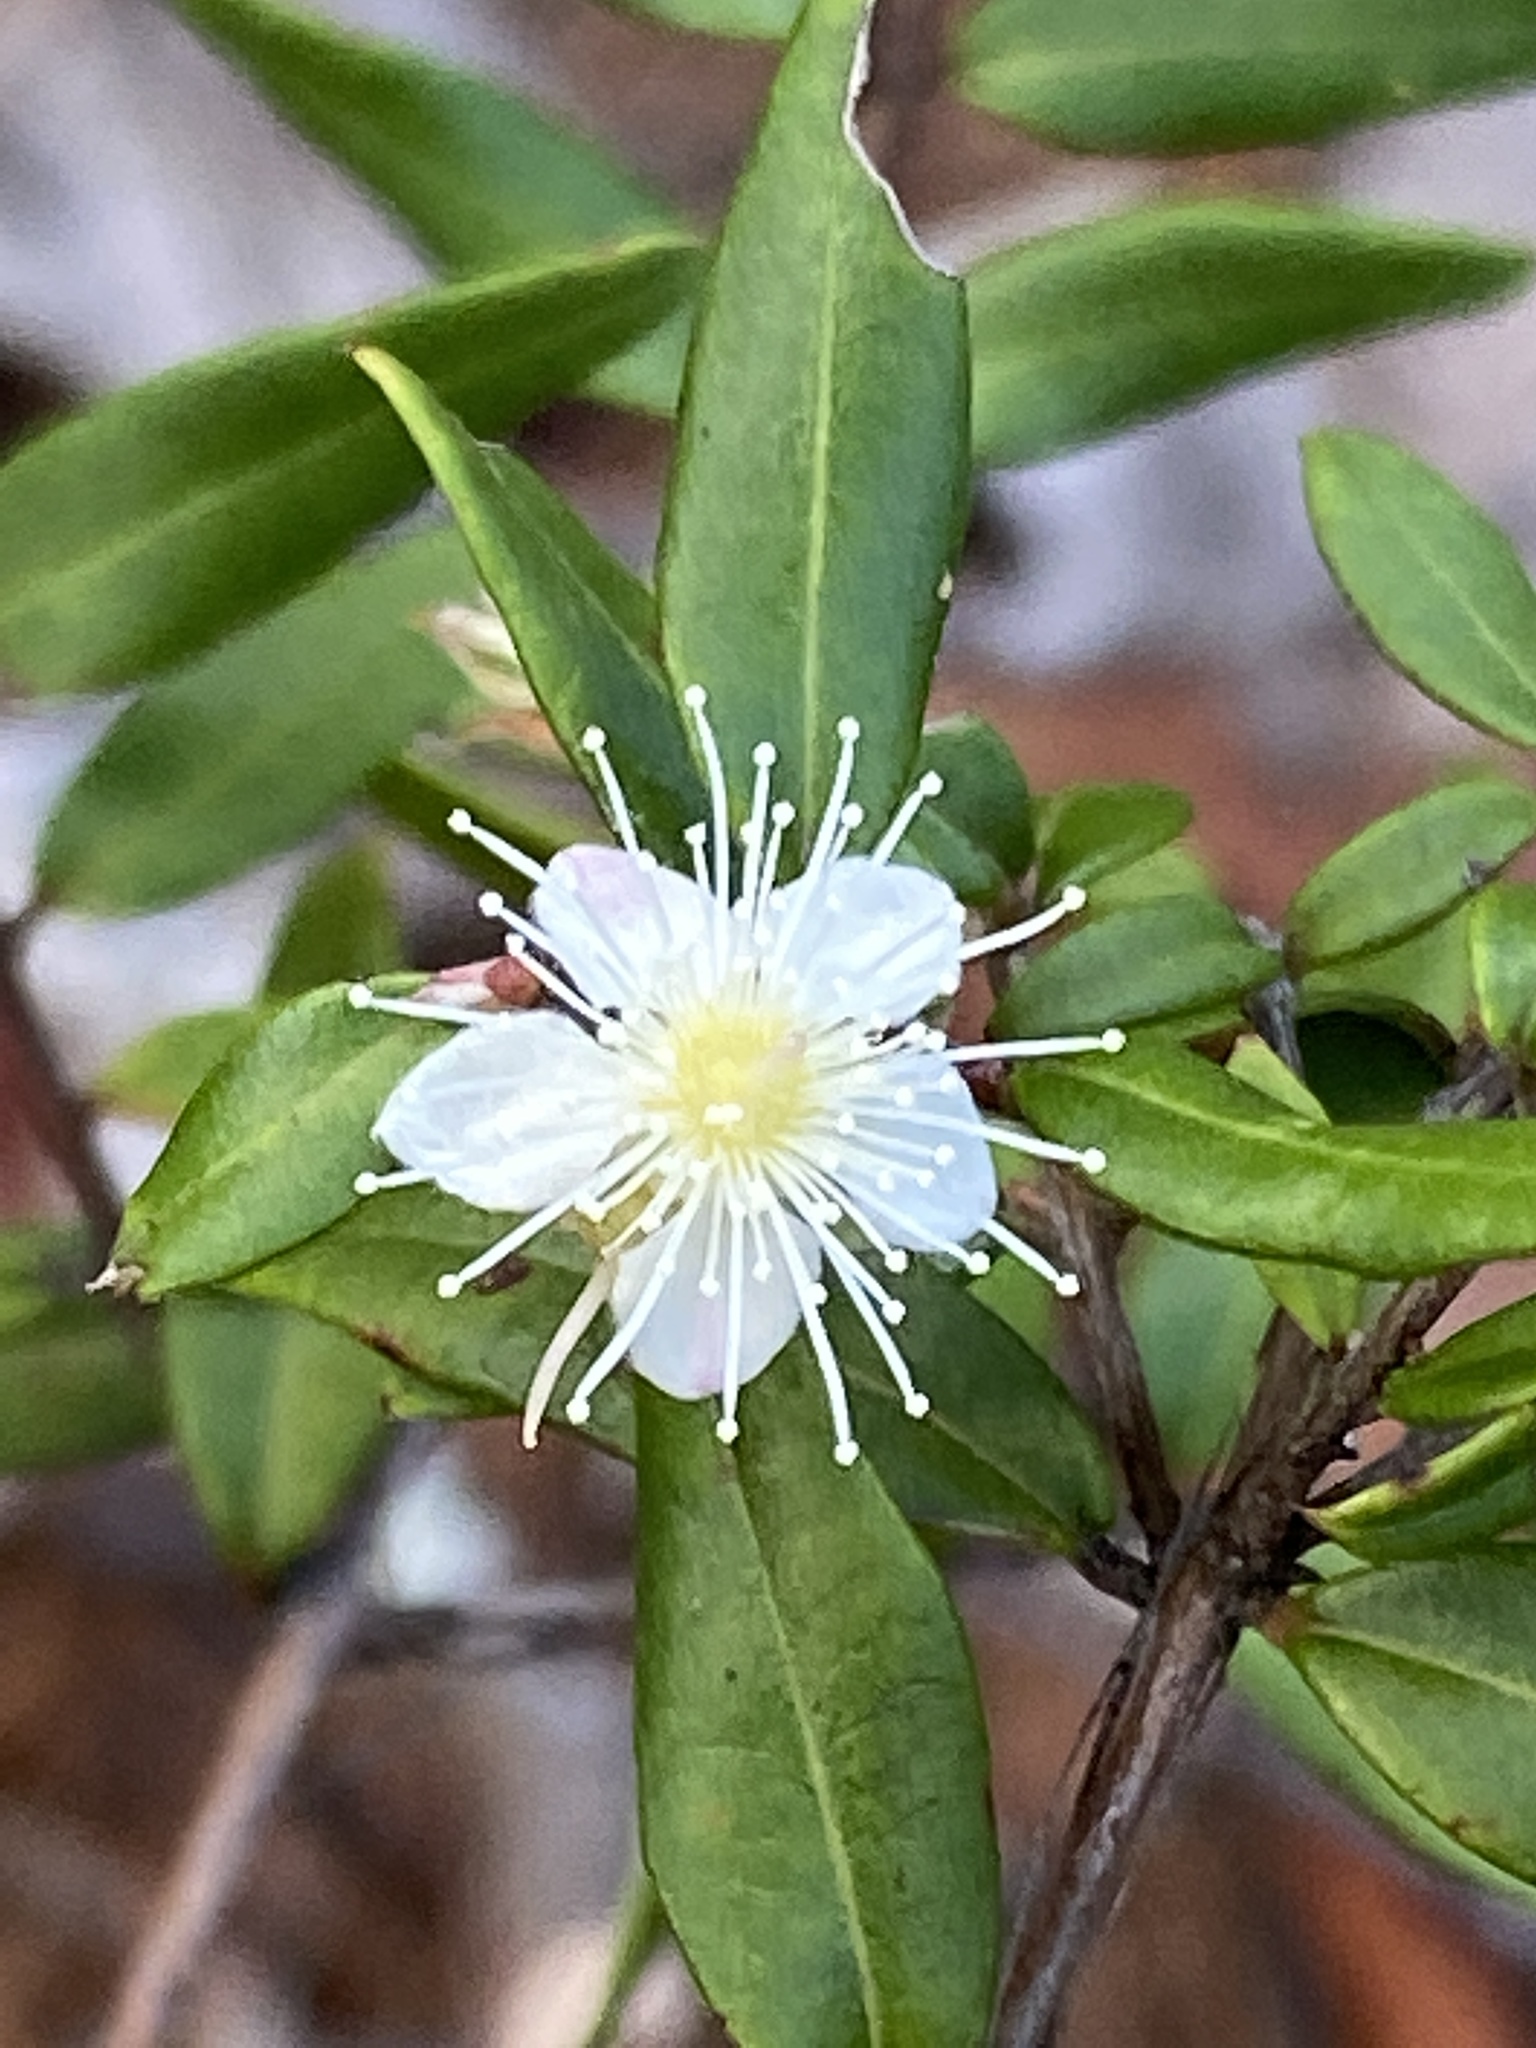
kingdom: Plantae
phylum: Tracheophyta
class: Magnoliopsida
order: Myrtales
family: Myrtaceae
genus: Austromyrtus
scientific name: Austromyrtus dulcis
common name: Migden-berry
